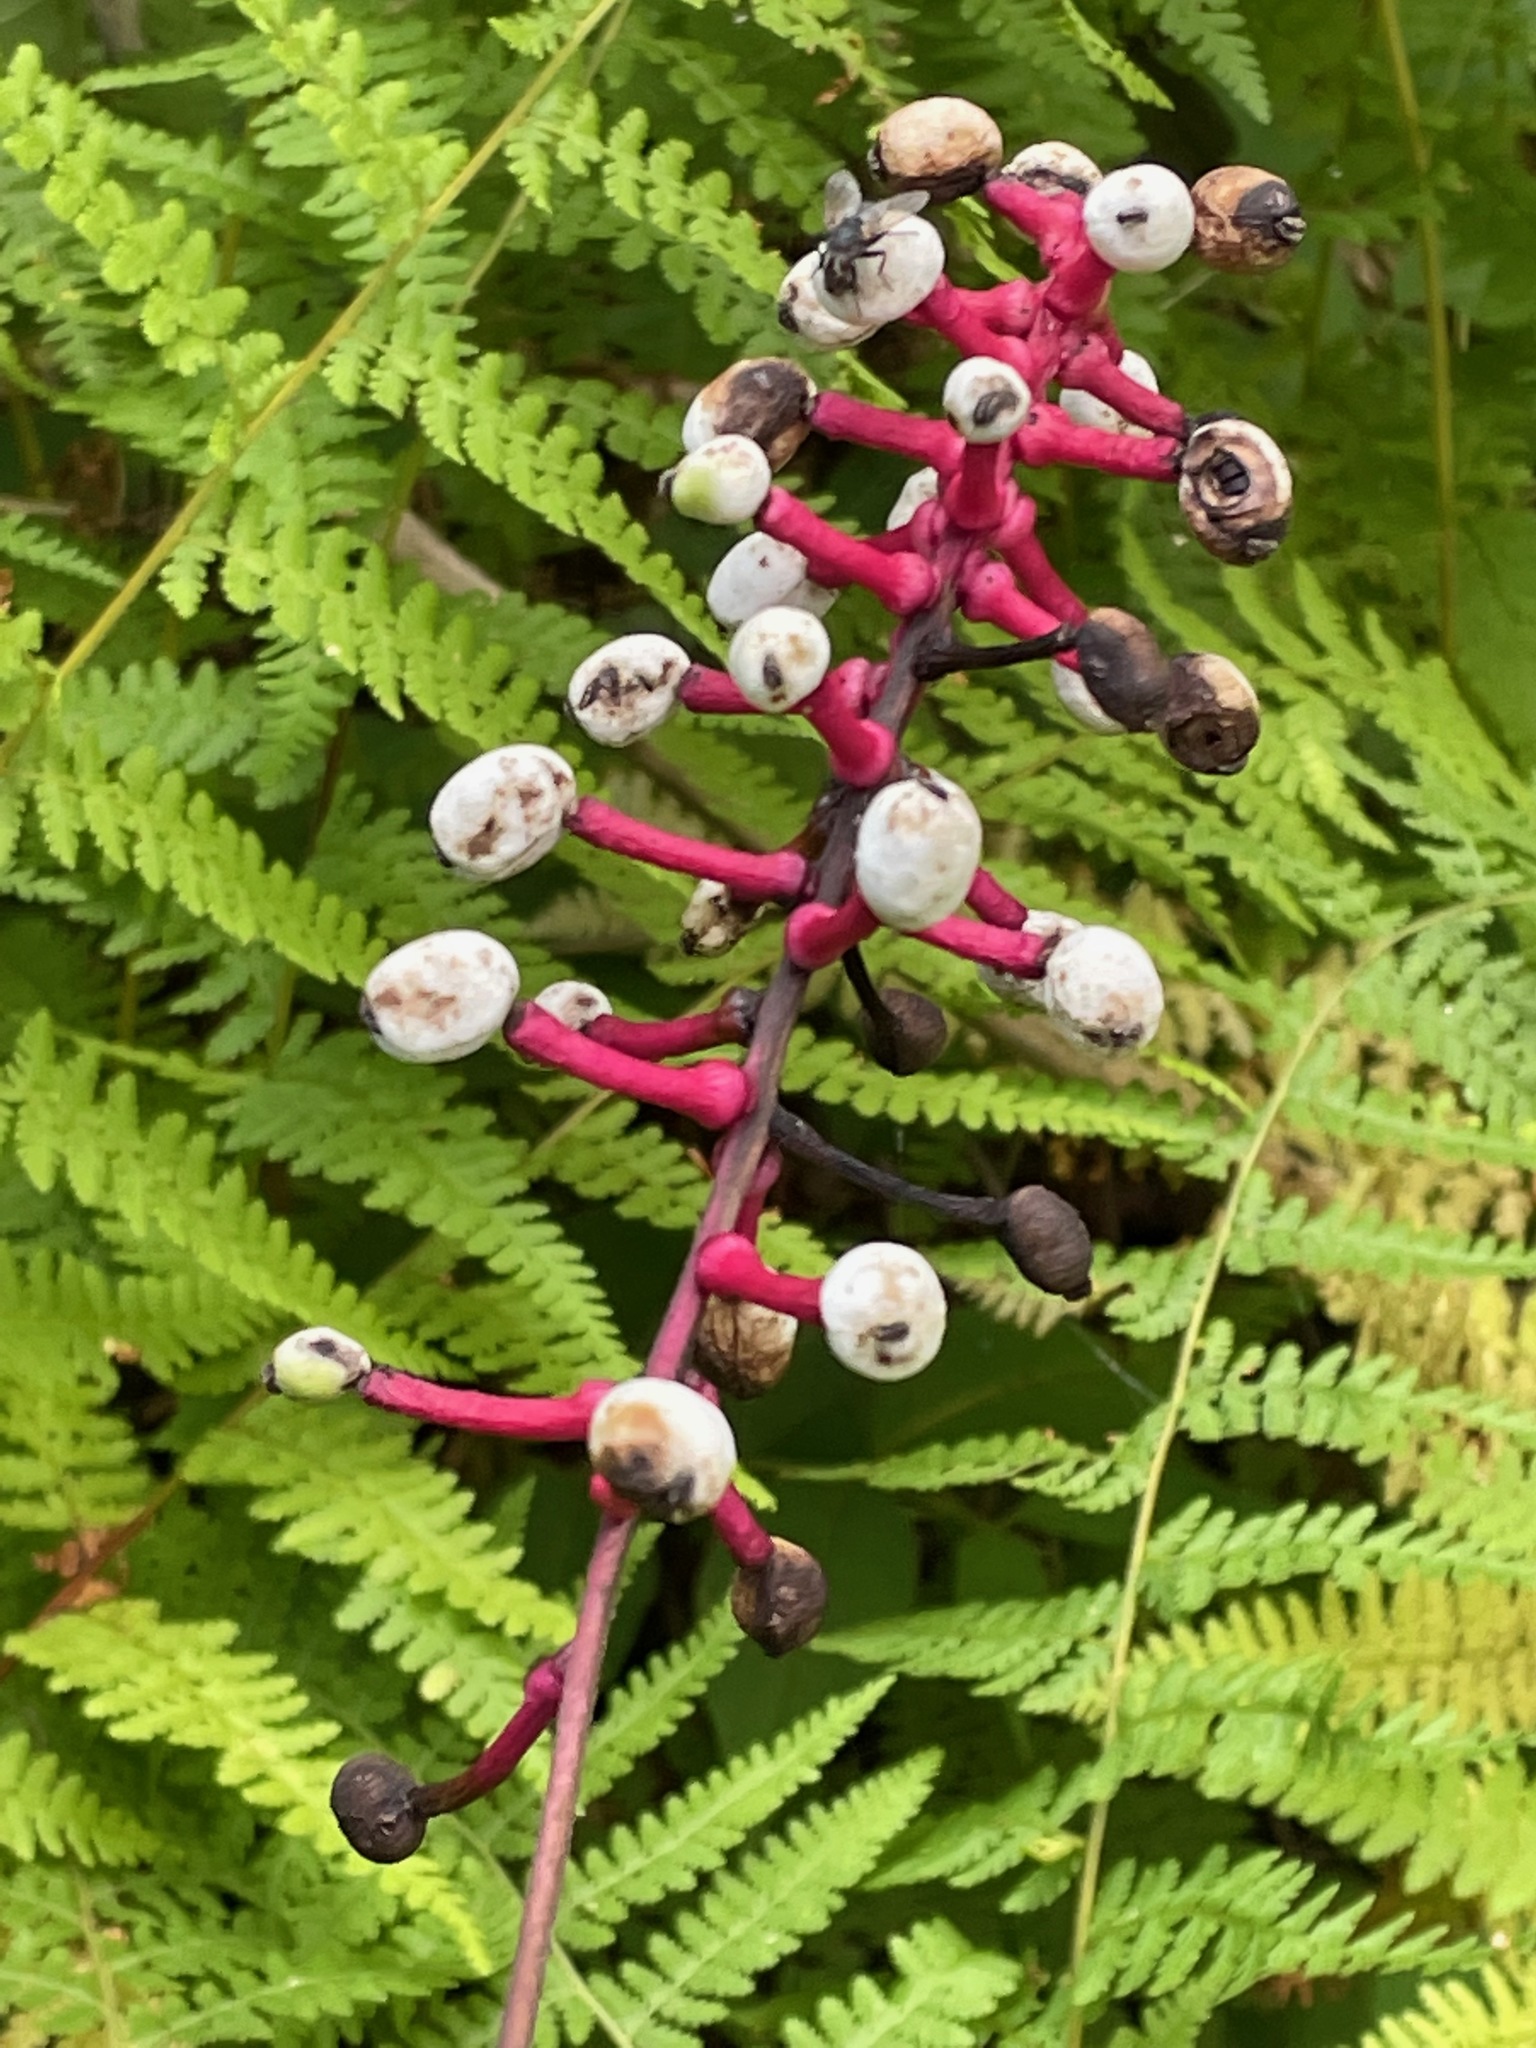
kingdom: Plantae
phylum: Tracheophyta
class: Magnoliopsida
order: Ranunculales
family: Ranunculaceae
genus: Actaea
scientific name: Actaea pachypoda
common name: Doll's-eyes
